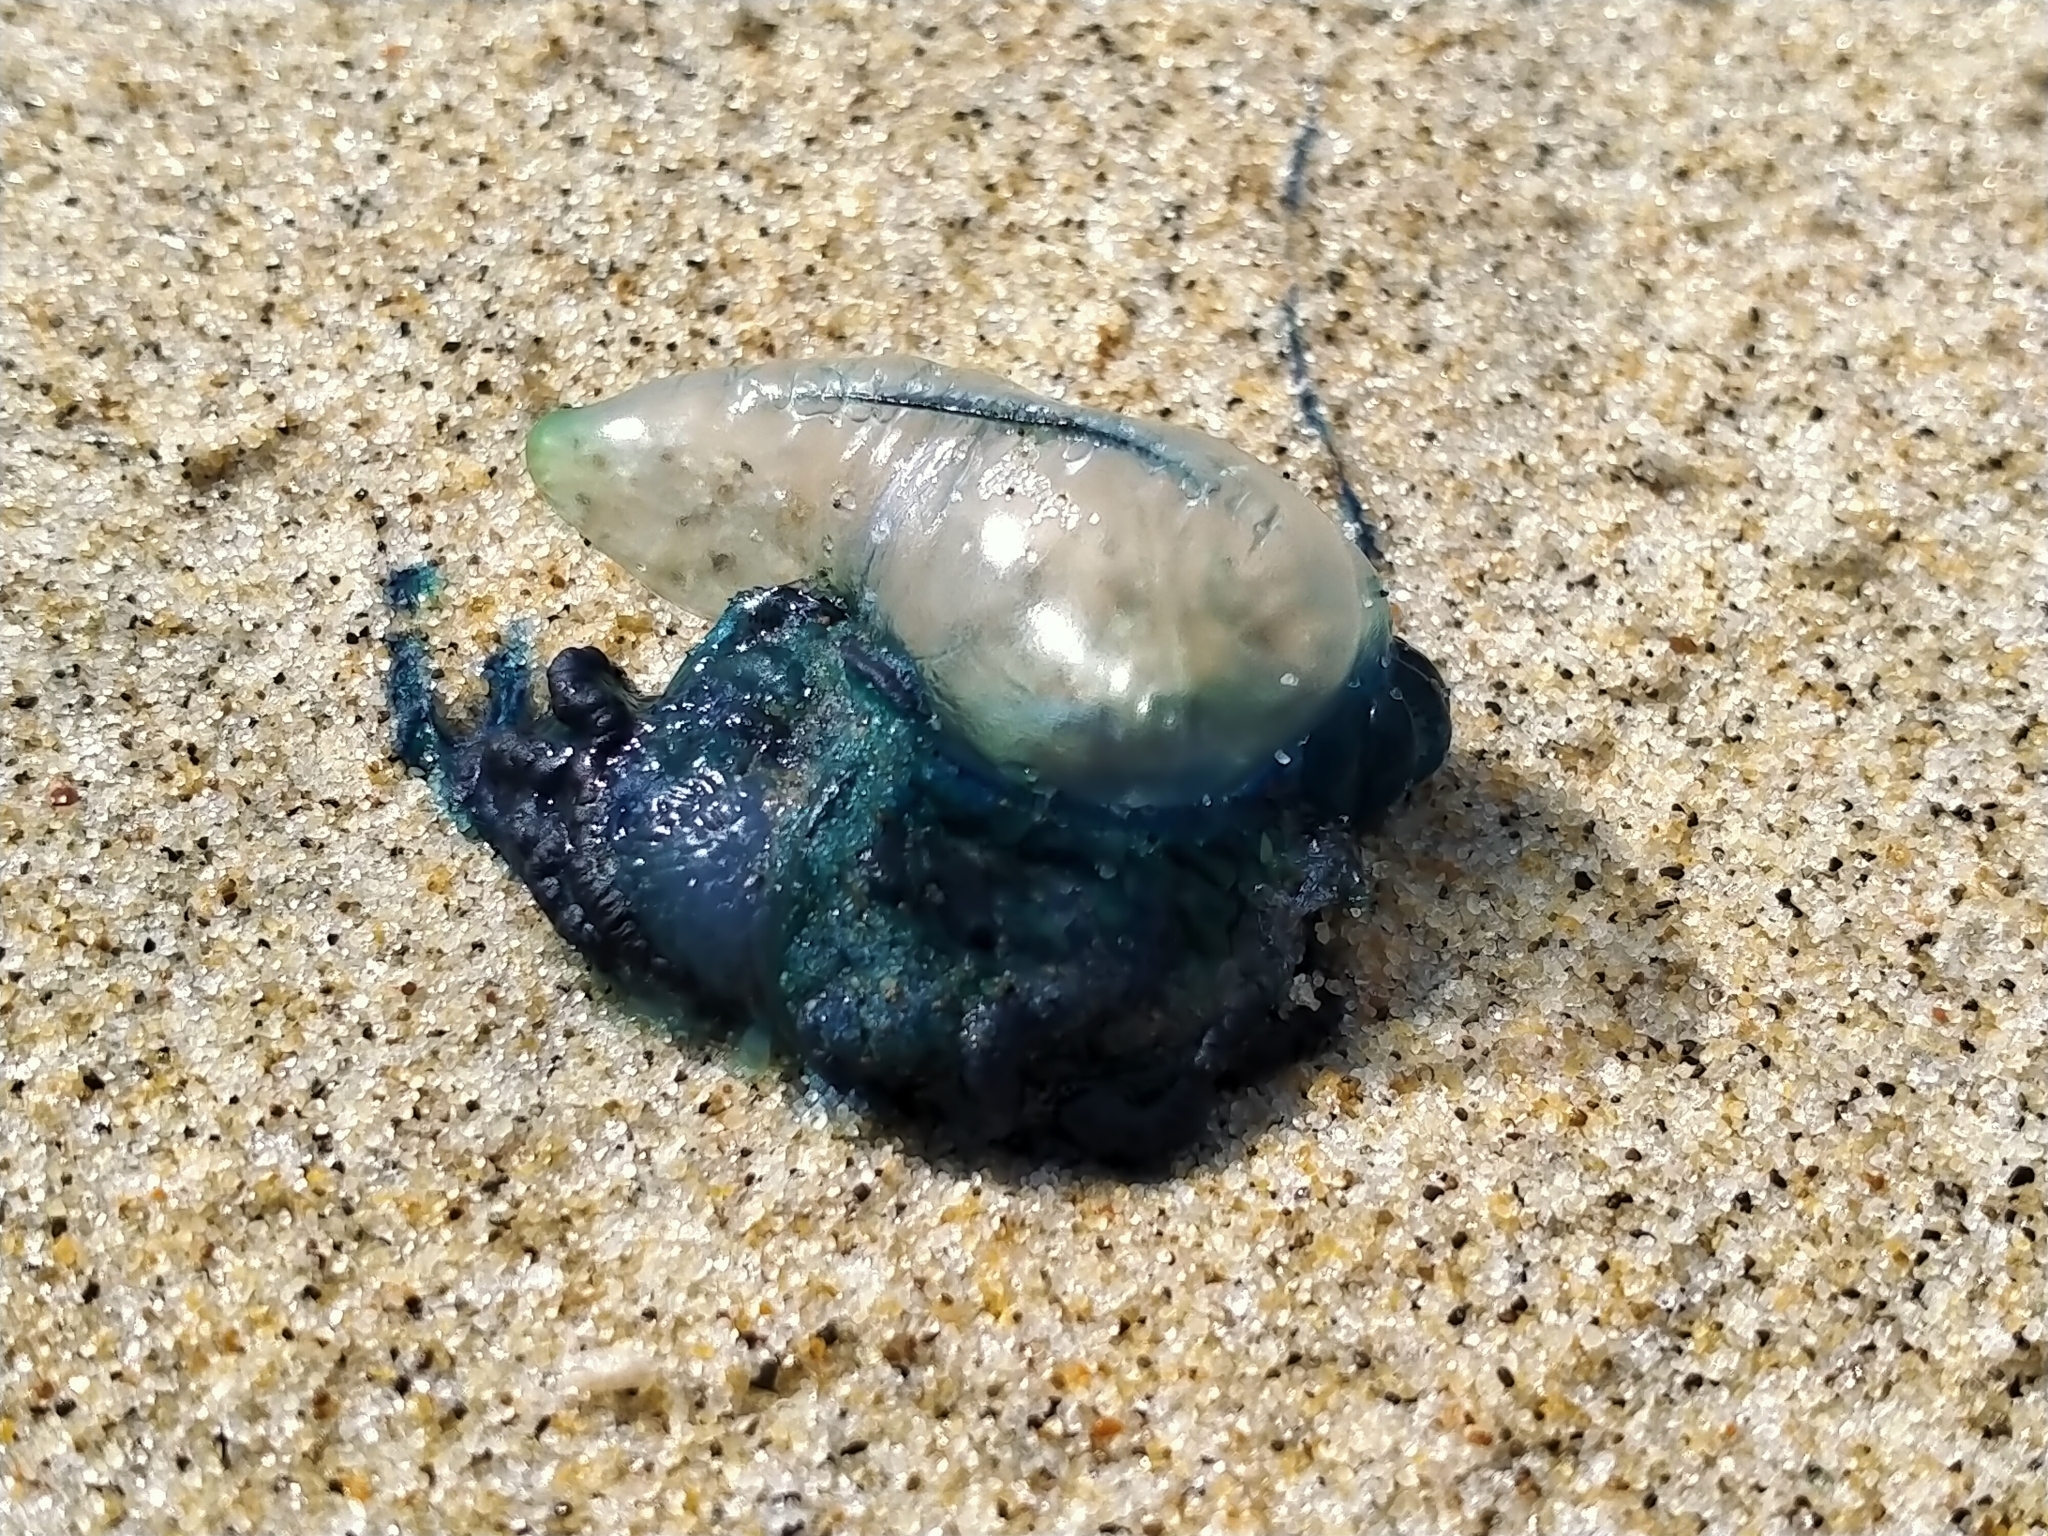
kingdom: Animalia
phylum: Cnidaria
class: Hydrozoa
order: Siphonophorae
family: Physaliidae
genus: Physalia
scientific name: Physalia physalis
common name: Portuguese man-of-war
